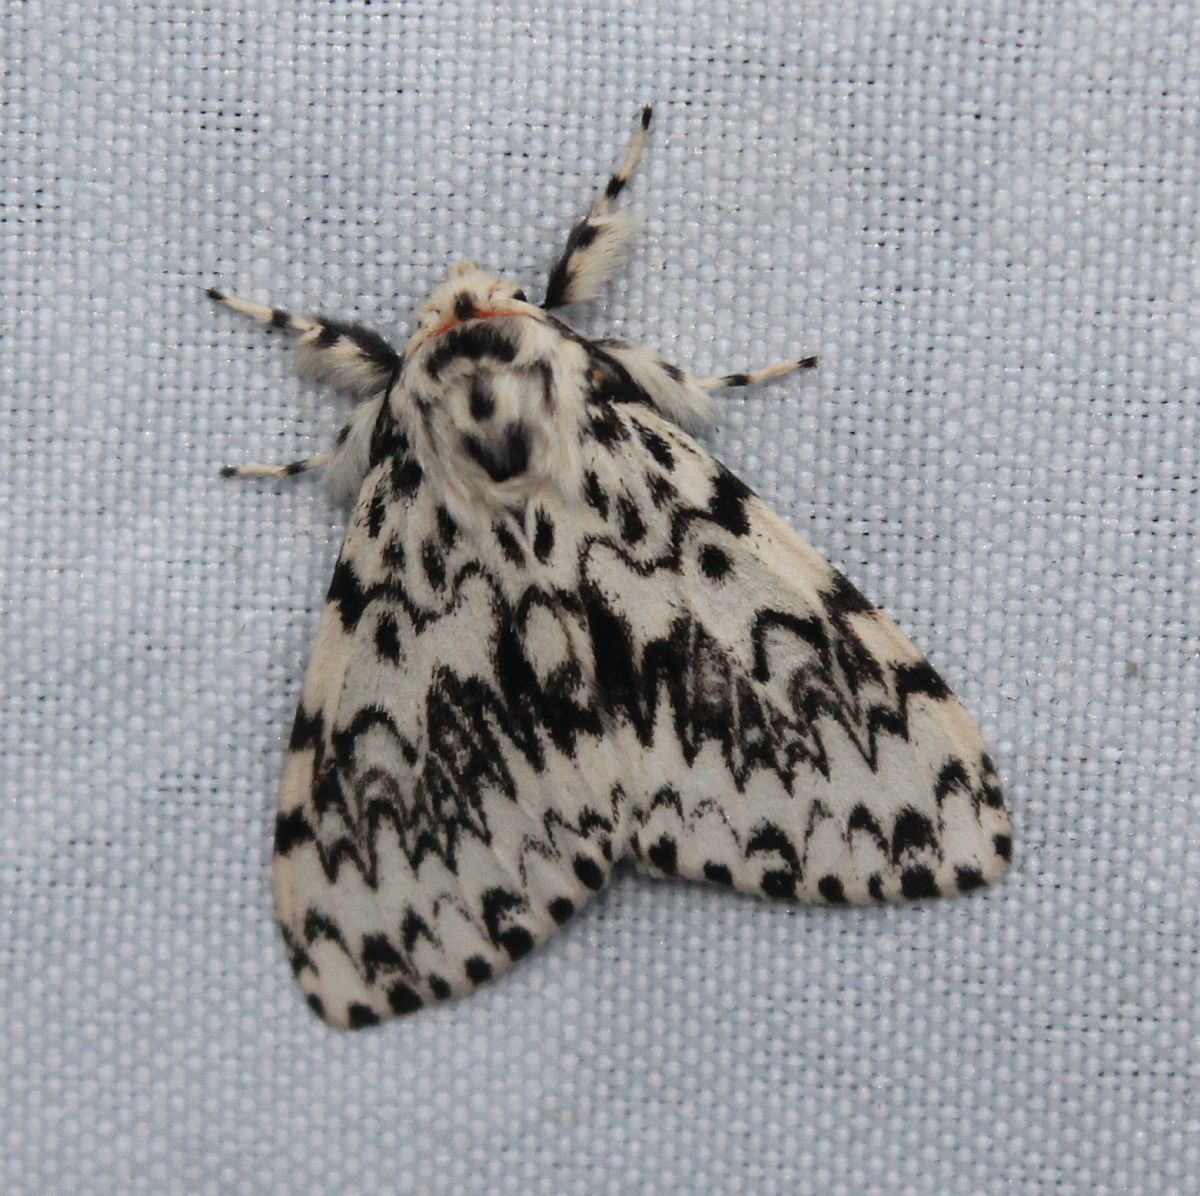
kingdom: Animalia
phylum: Arthropoda
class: Insecta
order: Lepidoptera
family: Erebidae
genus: Lymantria
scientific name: Lymantria monacha
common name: Black arches
